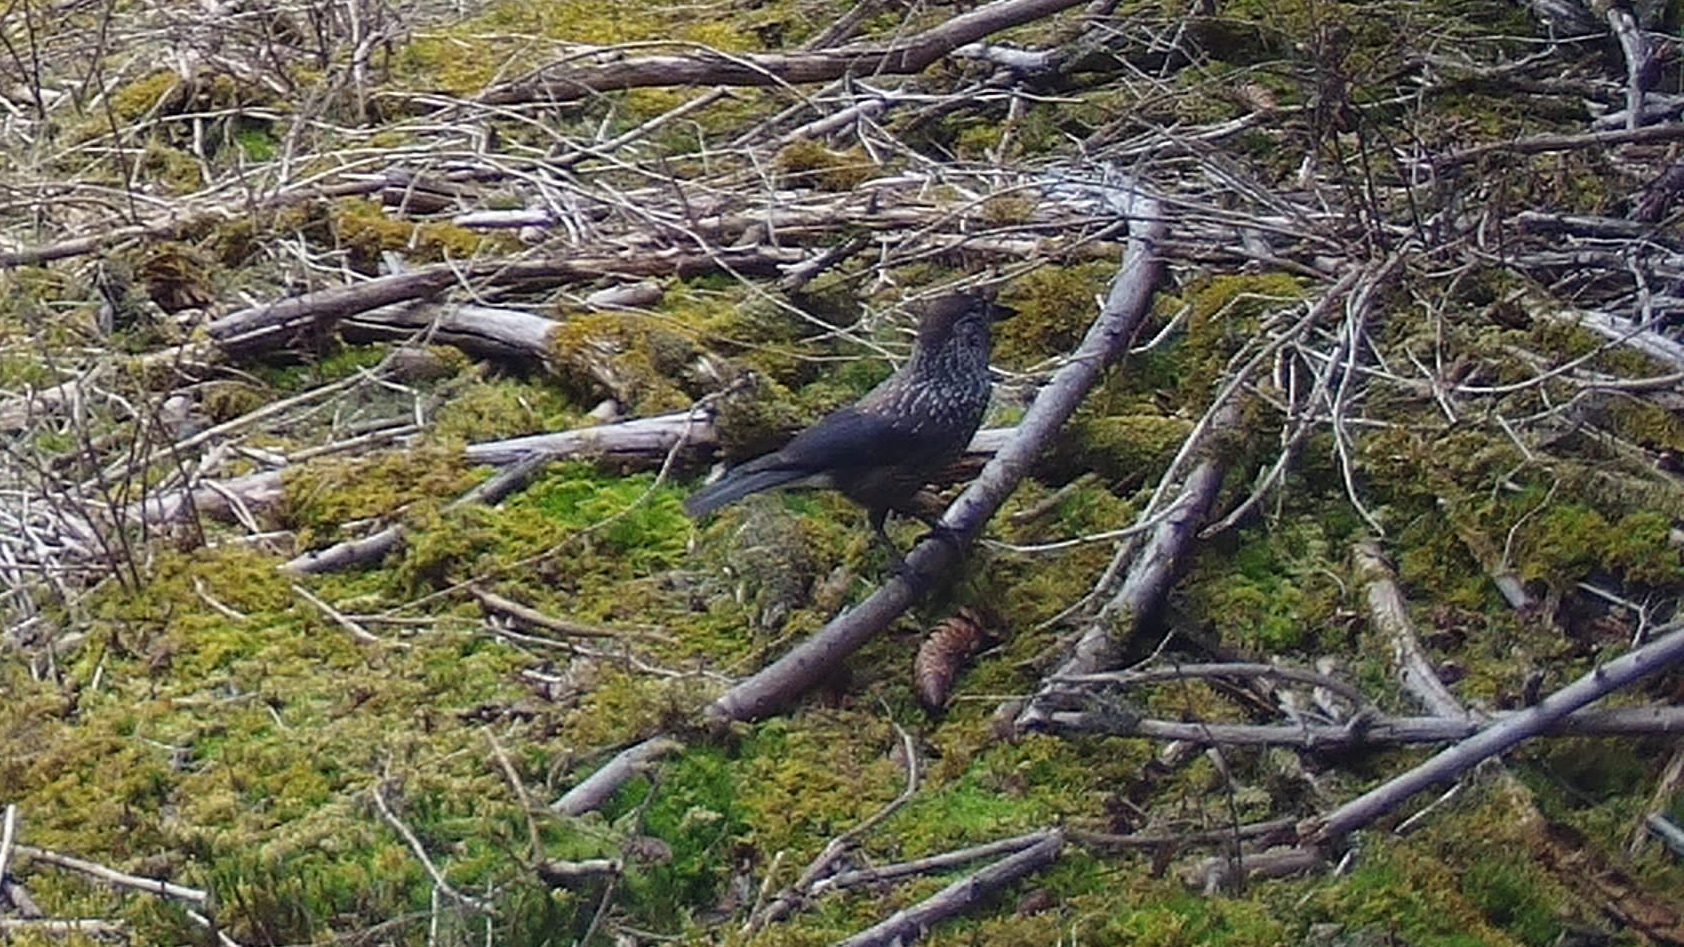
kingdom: Animalia
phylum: Chordata
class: Aves
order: Passeriformes
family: Corvidae
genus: Nucifraga
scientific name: Nucifraga caryocatactes
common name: Spotted nutcracker
